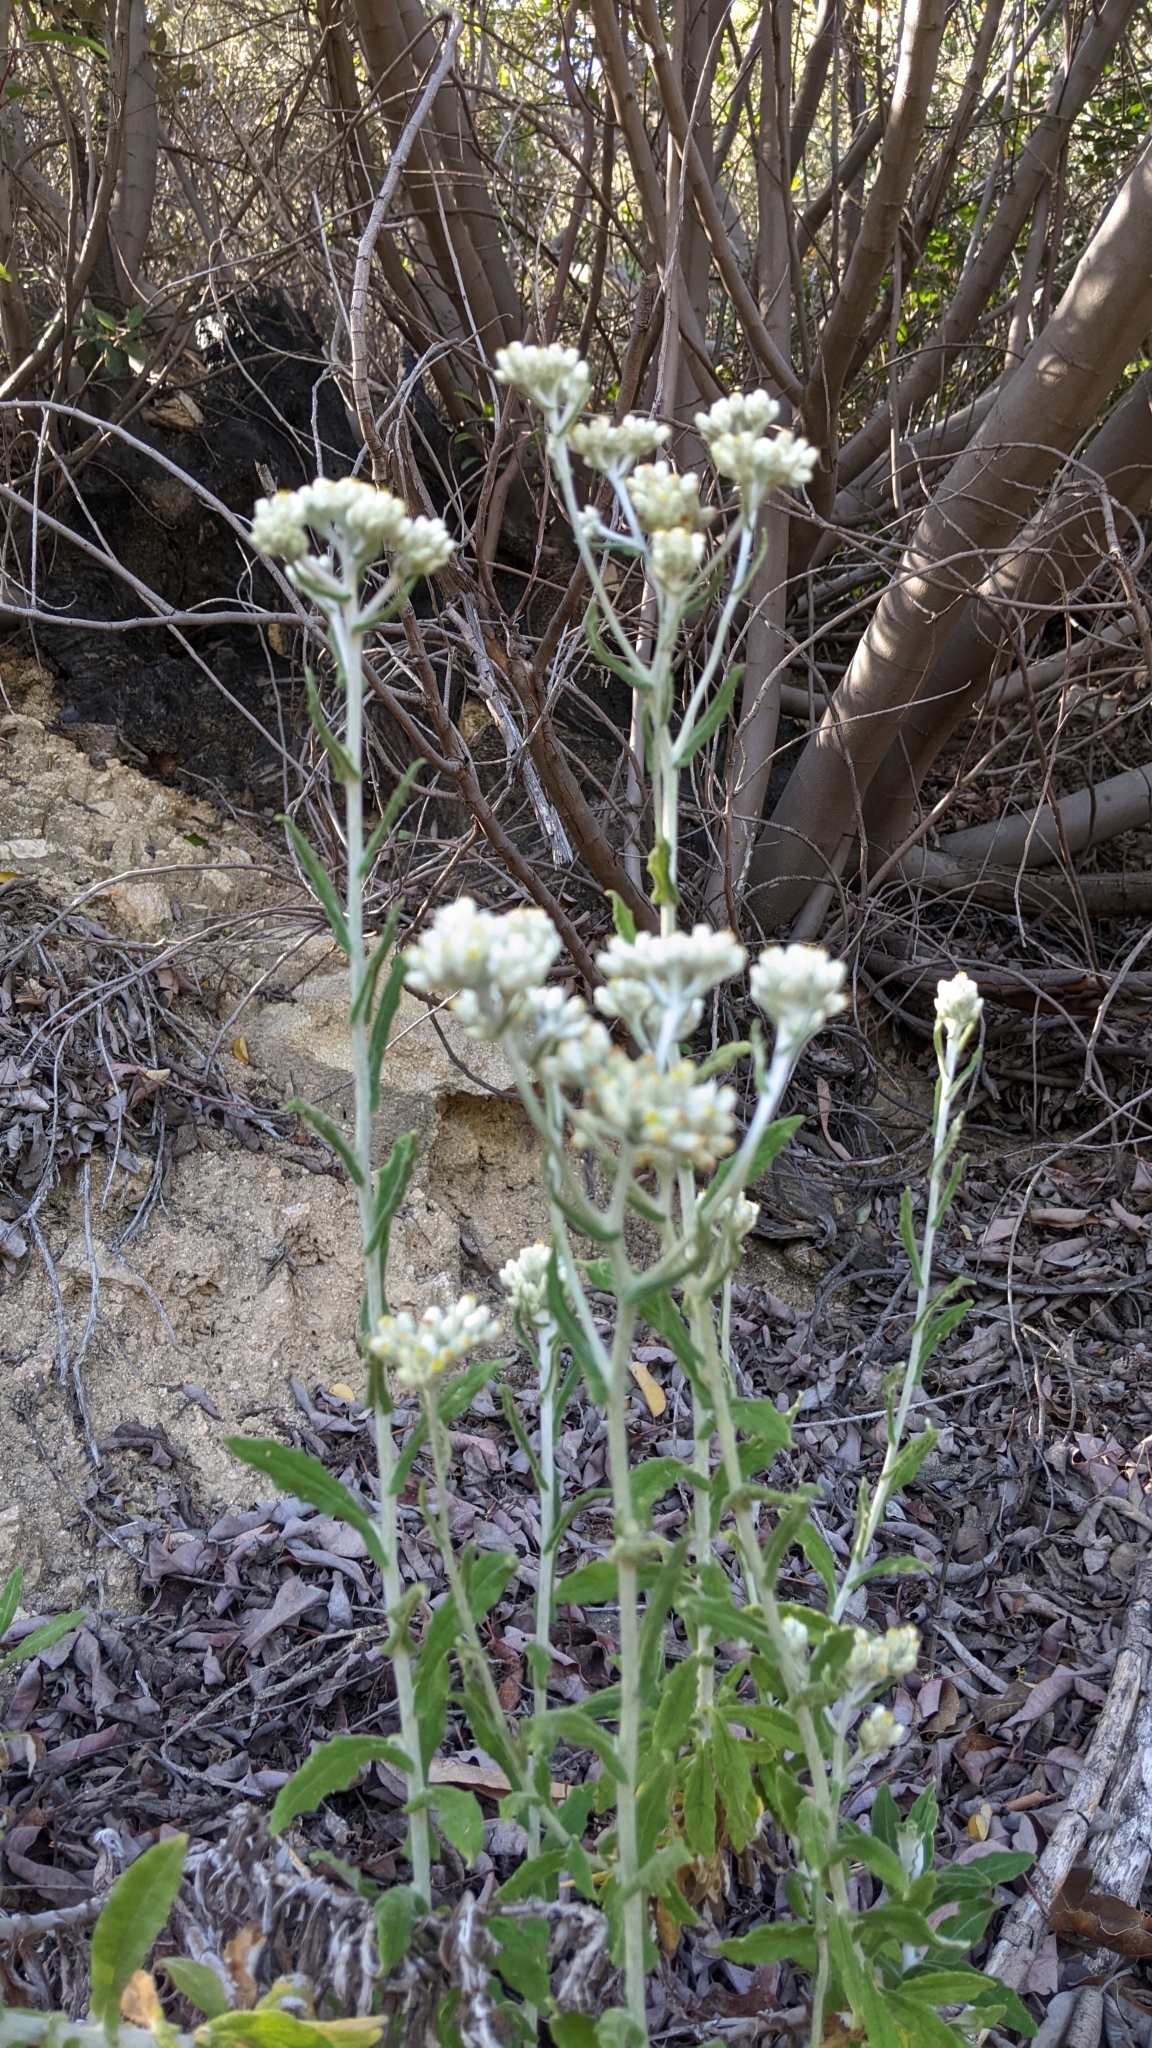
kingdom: Plantae
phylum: Tracheophyta
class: Magnoliopsida
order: Asterales
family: Asteraceae
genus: Pseudognaphalium
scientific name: Pseudognaphalium biolettii
